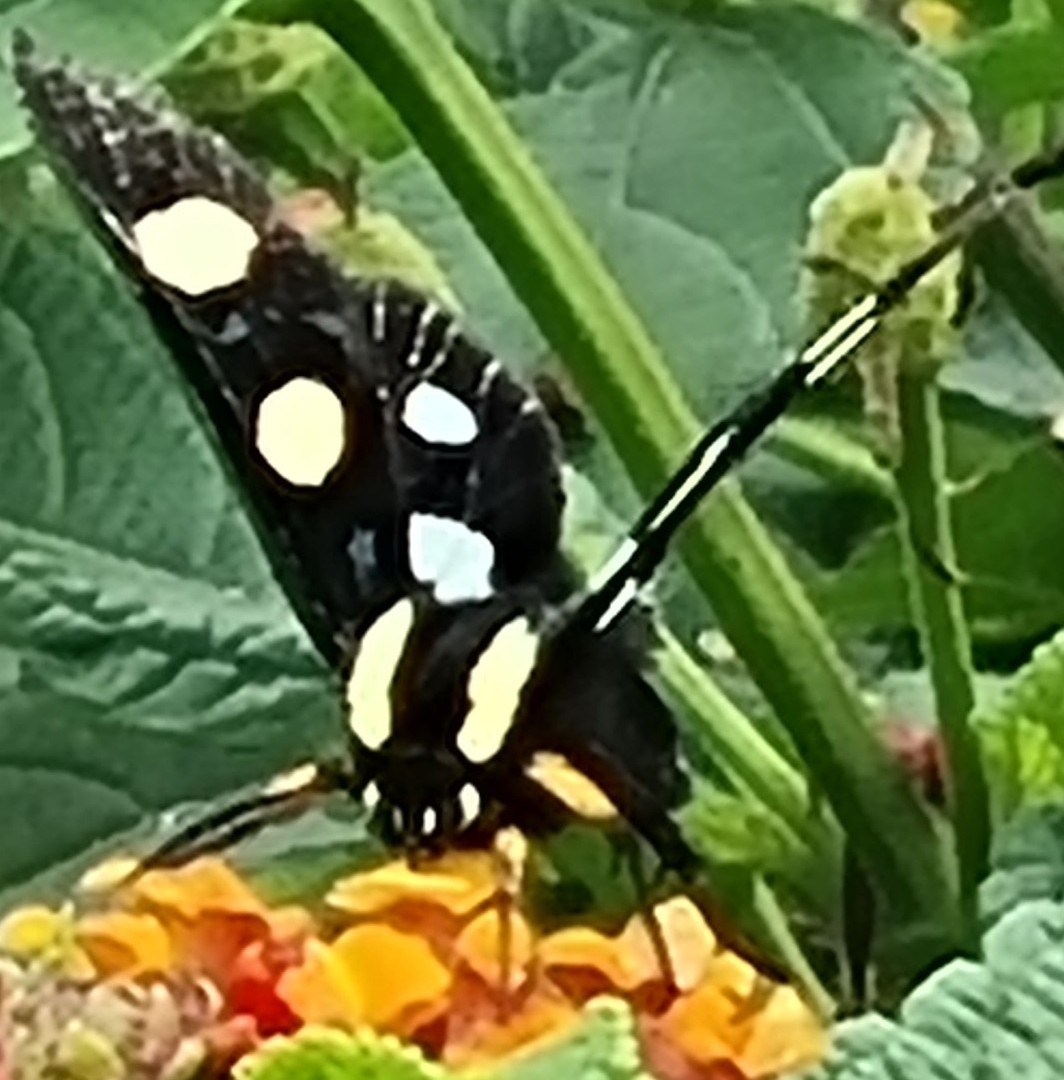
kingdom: Animalia
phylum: Arthropoda
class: Insecta
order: Lepidoptera
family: Noctuidae
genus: Alypia
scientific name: Alypia disparata
